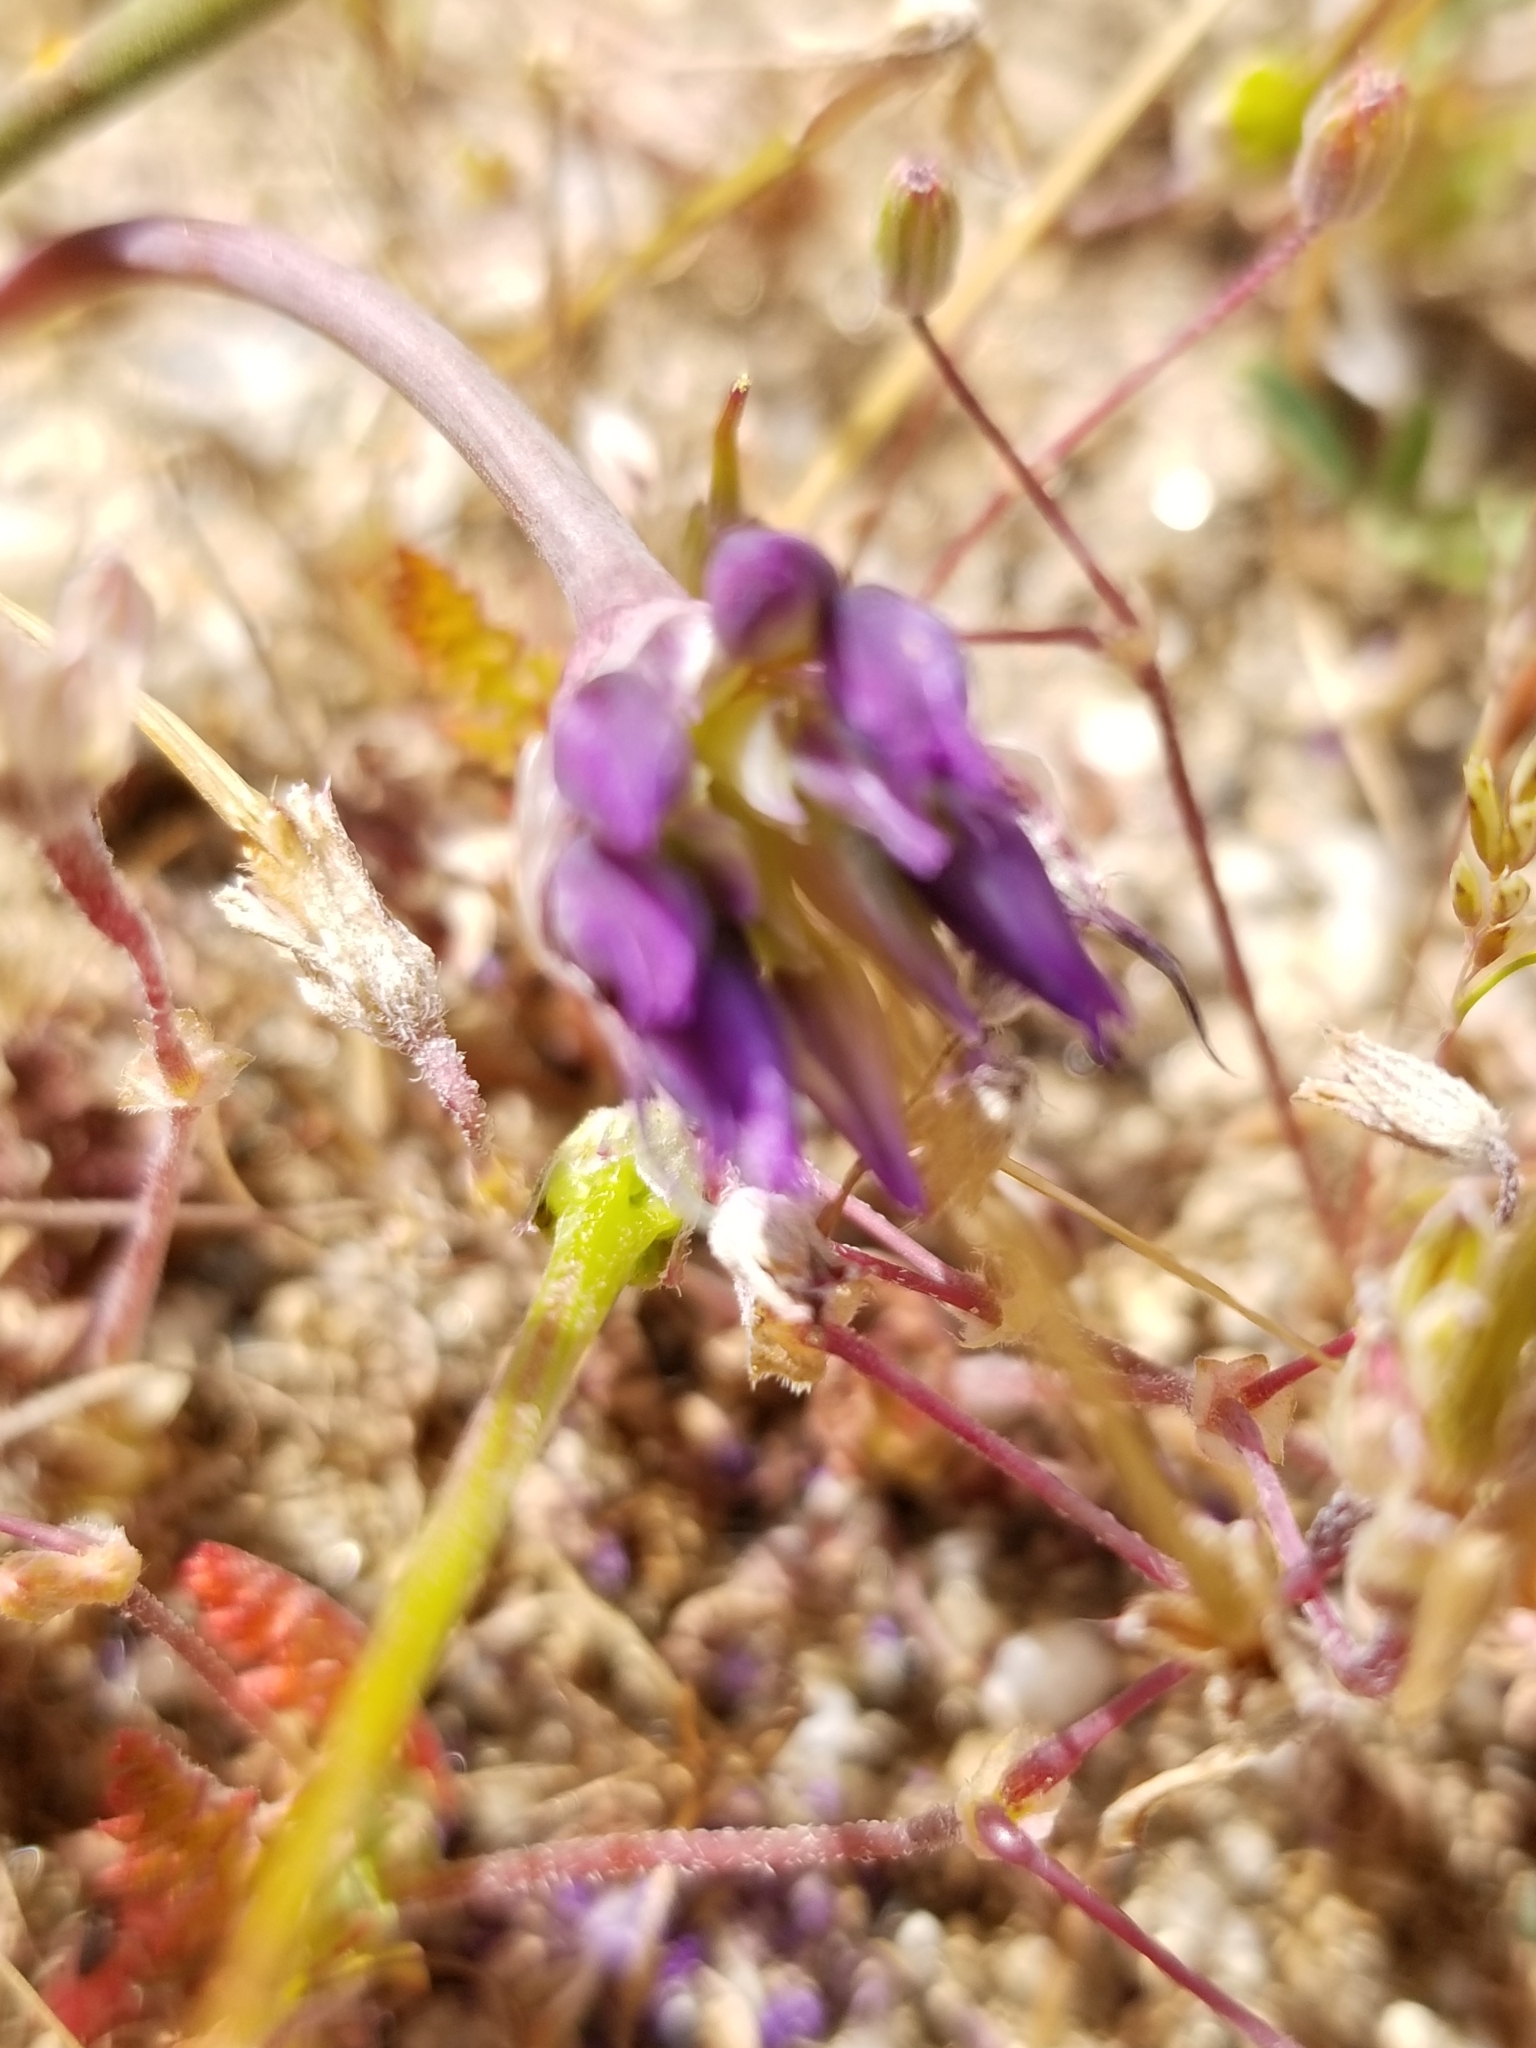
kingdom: Plantae
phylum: Tracheophyta
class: Liliopsida
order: Asparagales
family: Amaryllidaceae
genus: Allium
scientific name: Allium fimbriatum
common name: Fringed onion
